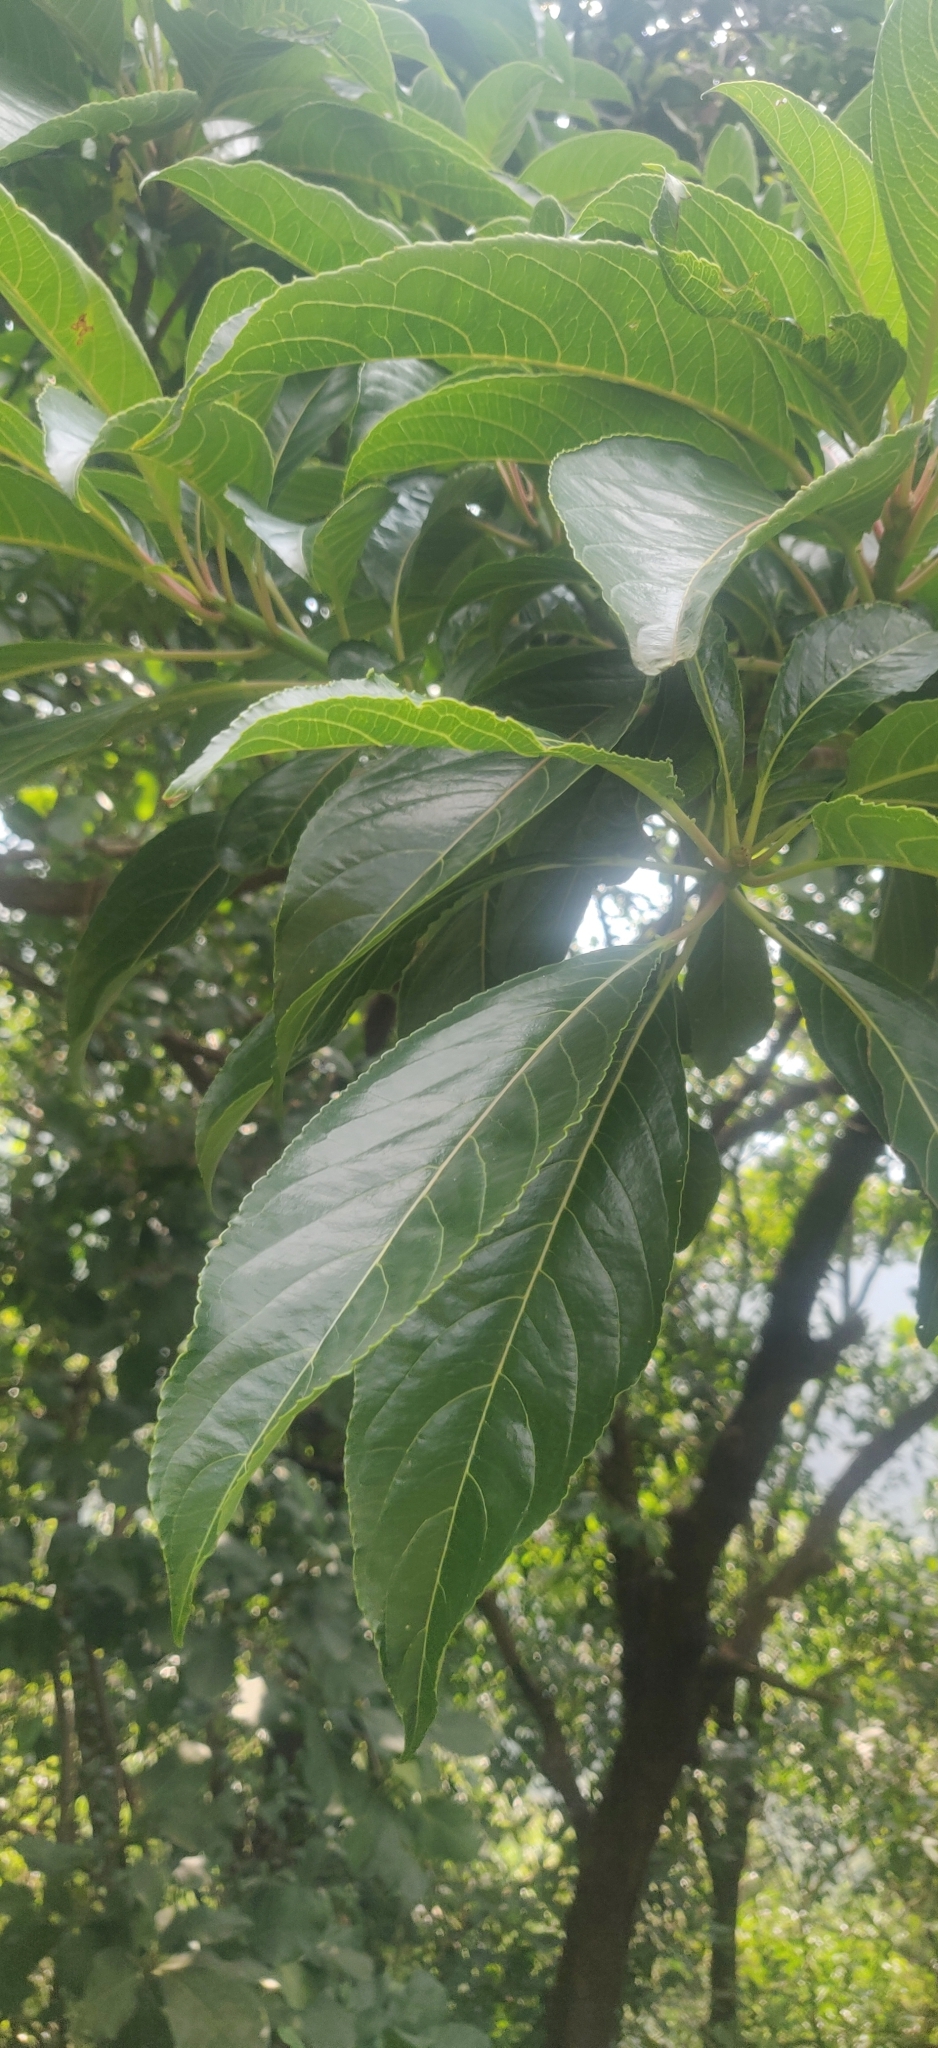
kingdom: Plantae
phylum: Tracheophyta
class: Magnoliopsida
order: Malpighiales
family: Euphorbiaceae
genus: Falconeria
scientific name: Falconeria insignis
